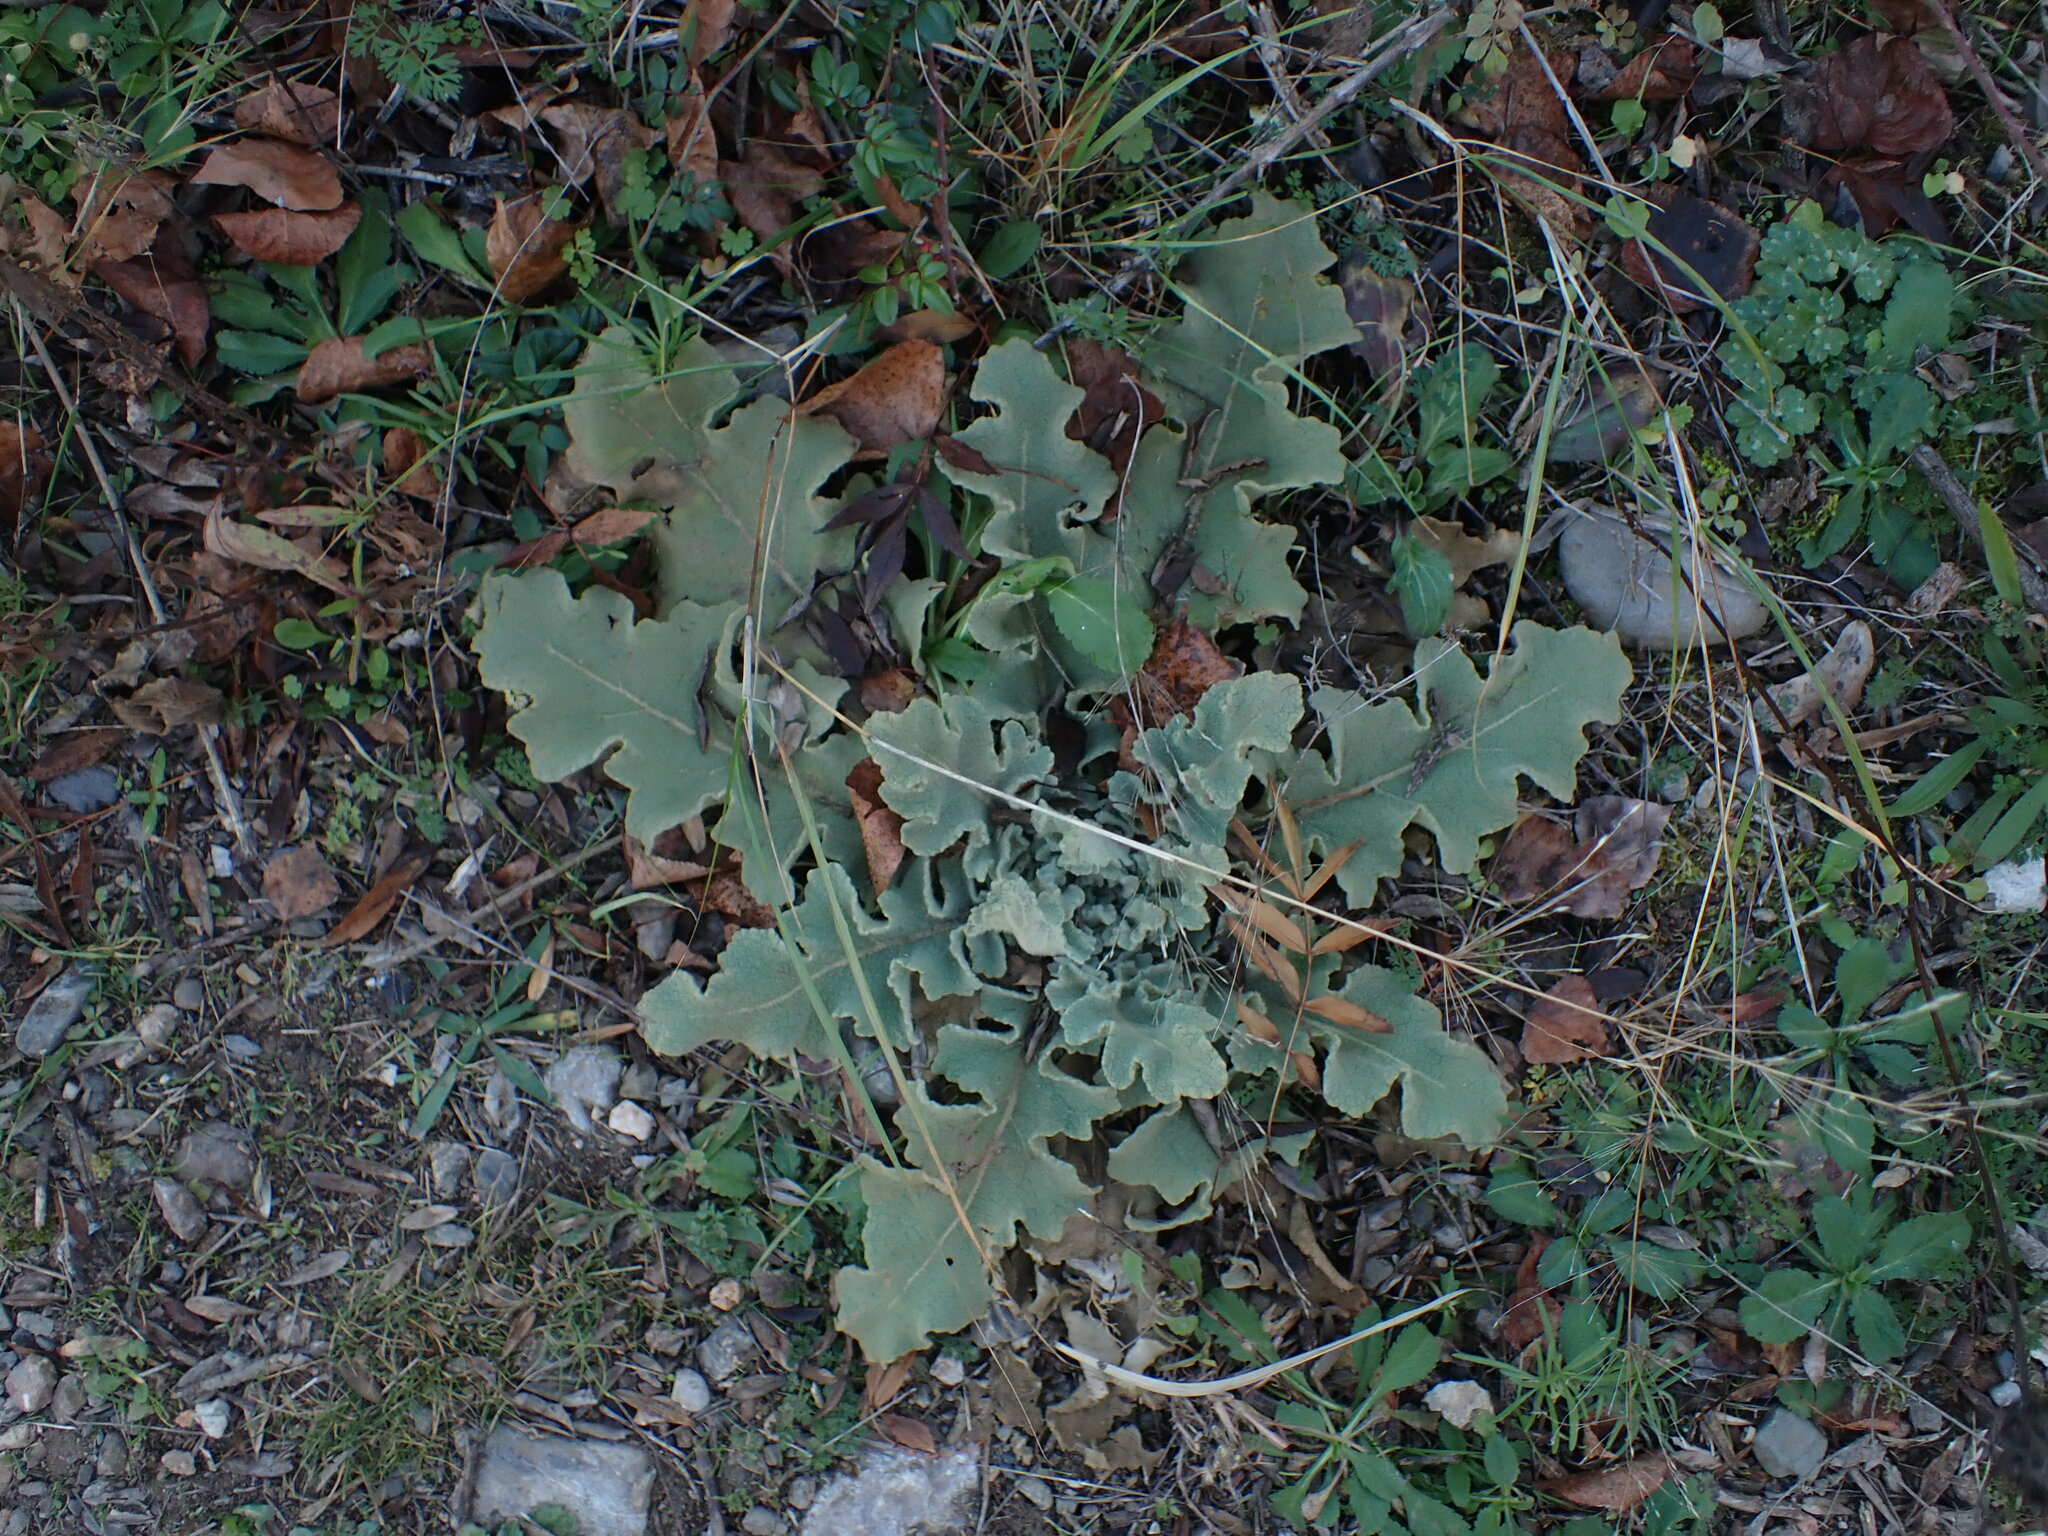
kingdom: Plantae
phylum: Tracheophyta
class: Magnoliopsida
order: Lamiales
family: Scrophulariaceae
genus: Verbascum
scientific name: Verbascum sinuatum
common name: Wavyleaf mullein
